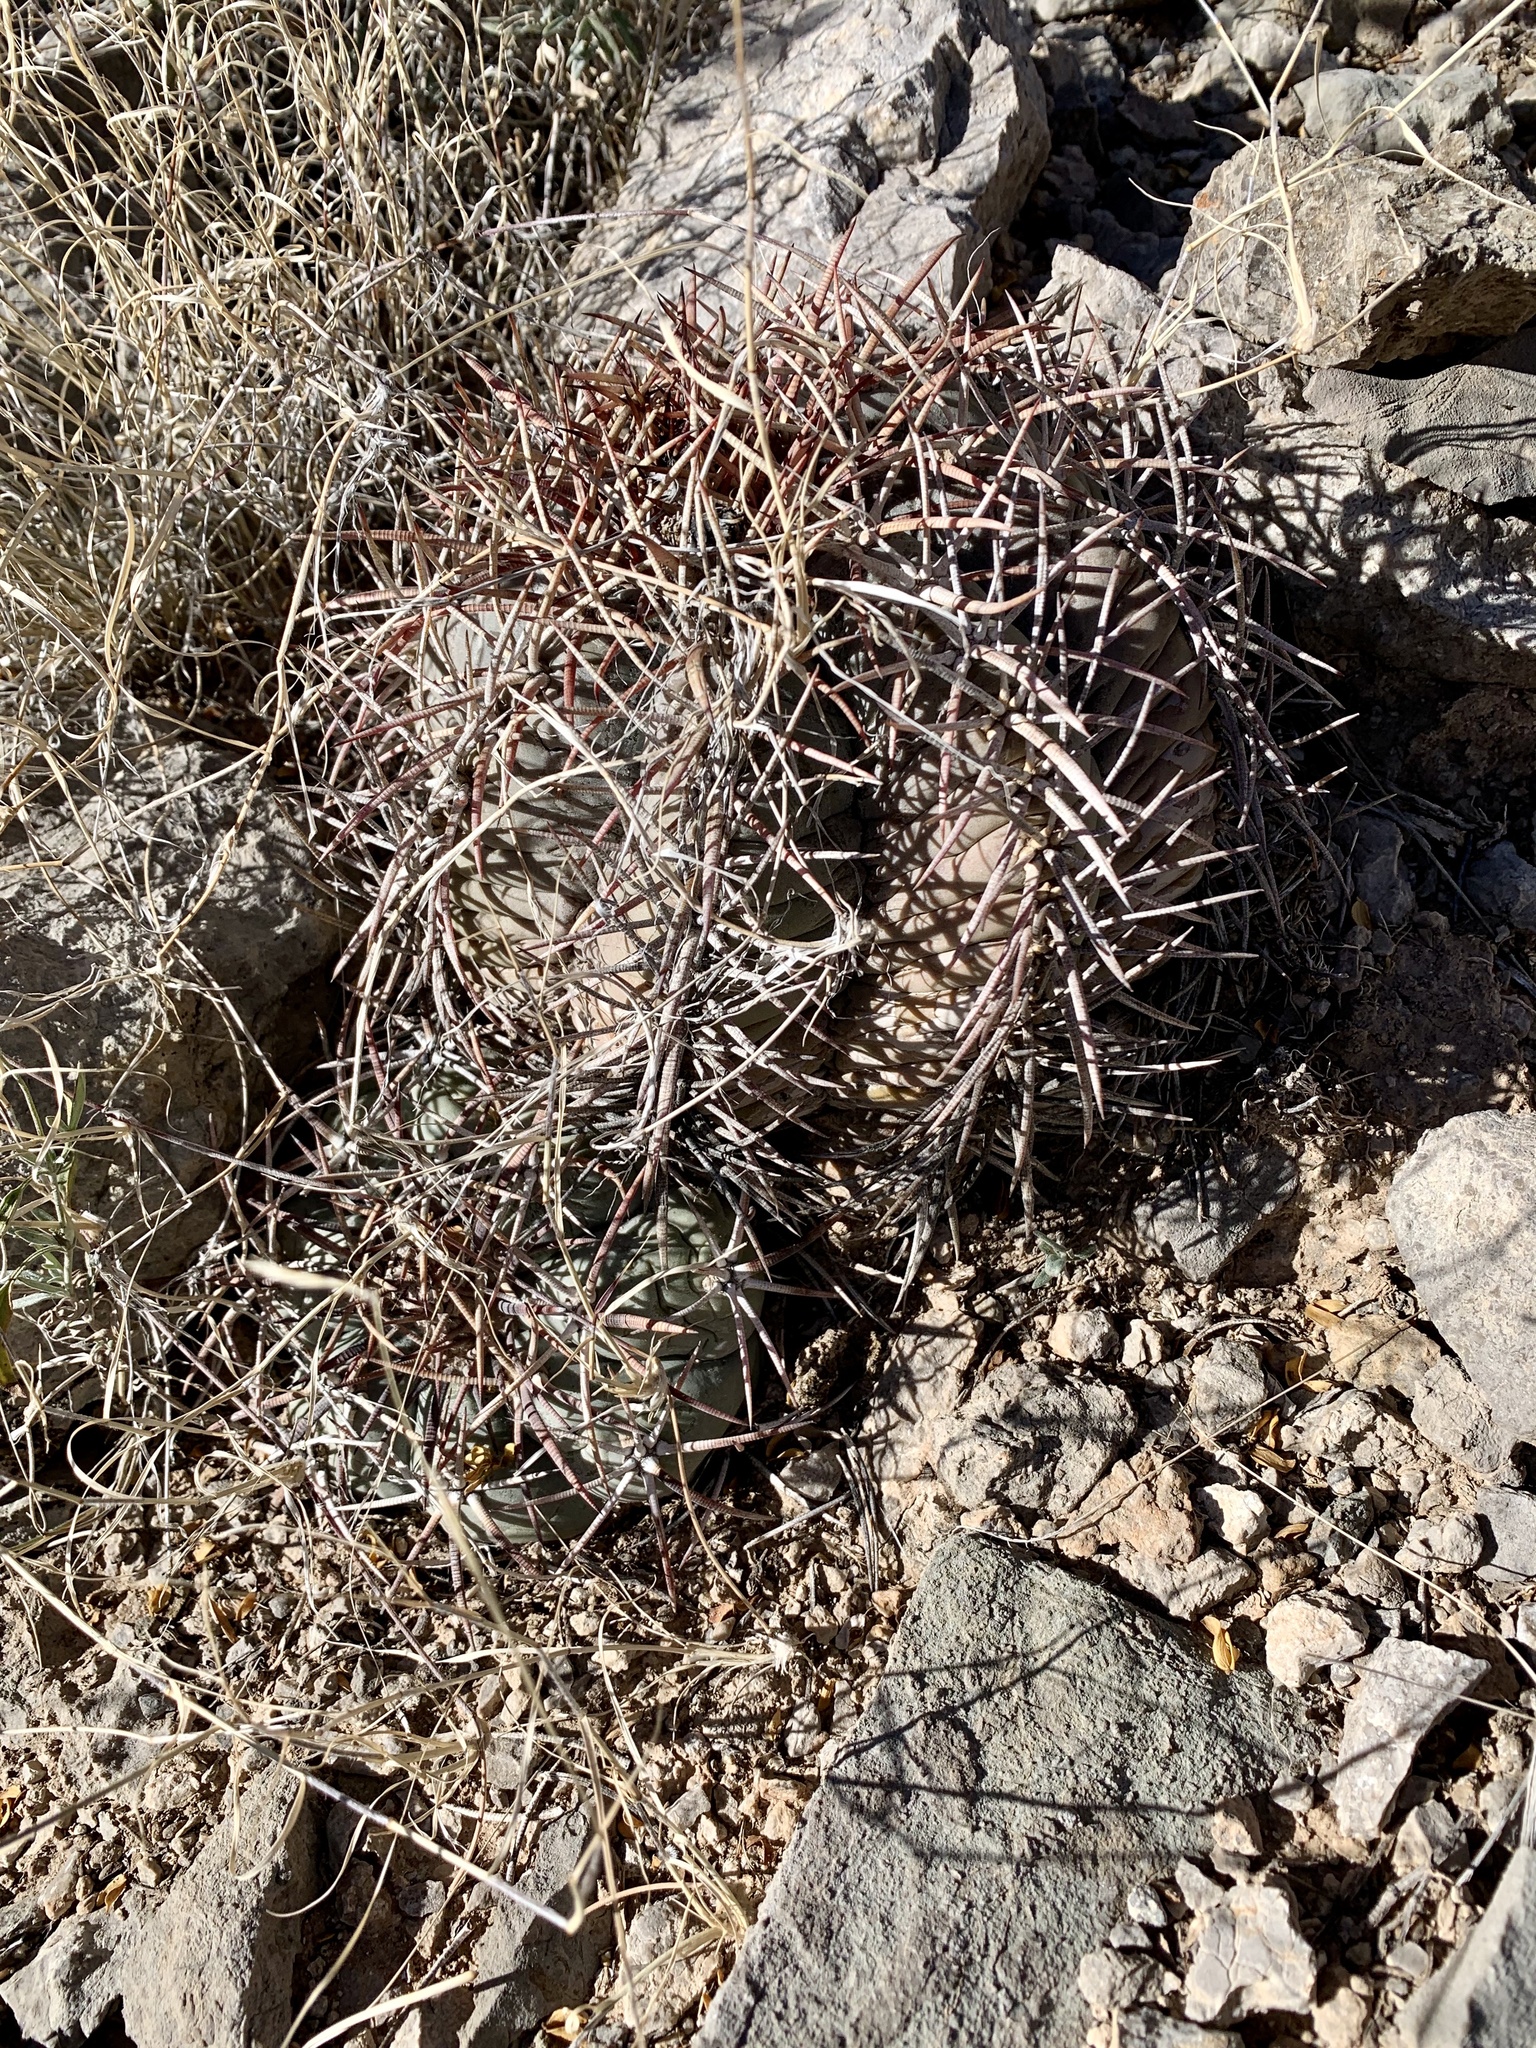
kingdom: Plantae
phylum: Tracheophyta
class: Magnoliopsida
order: Caryophyllales
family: Cactaceae
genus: Echinocactus
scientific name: Echinocactus horizonthalonius
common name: Devilshead
